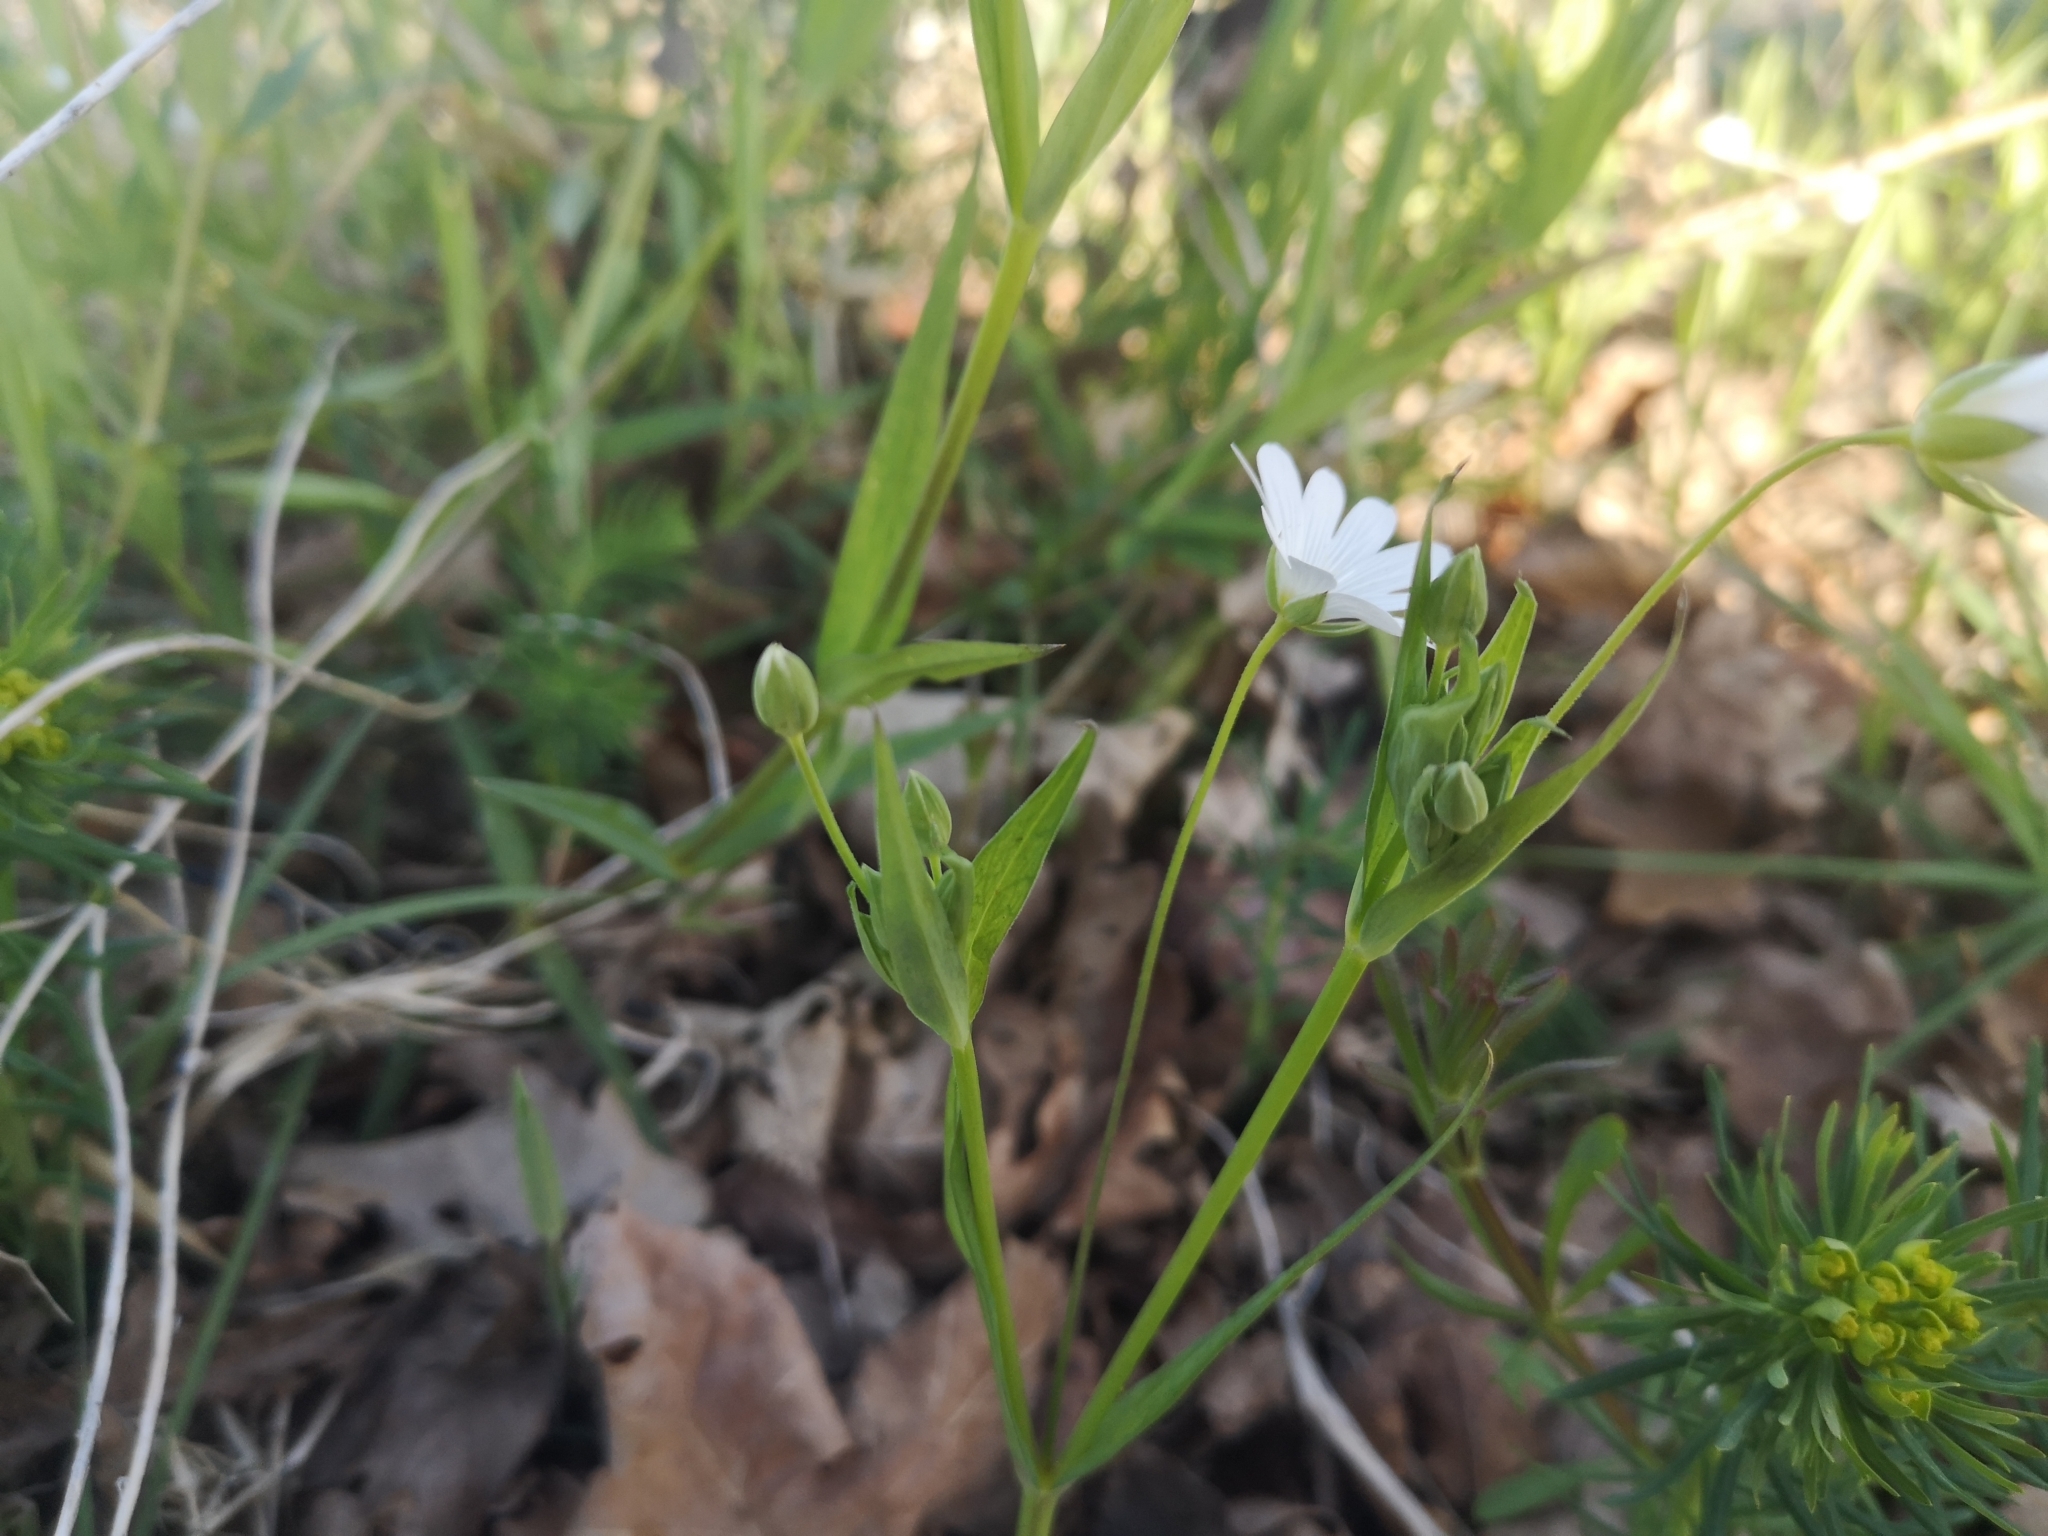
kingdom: Plantae
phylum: Tracheophyta
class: Magnoliopsida
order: Caryophyllales
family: Caryophyllaceae
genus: Rabelera
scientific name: Rabelera holostea
